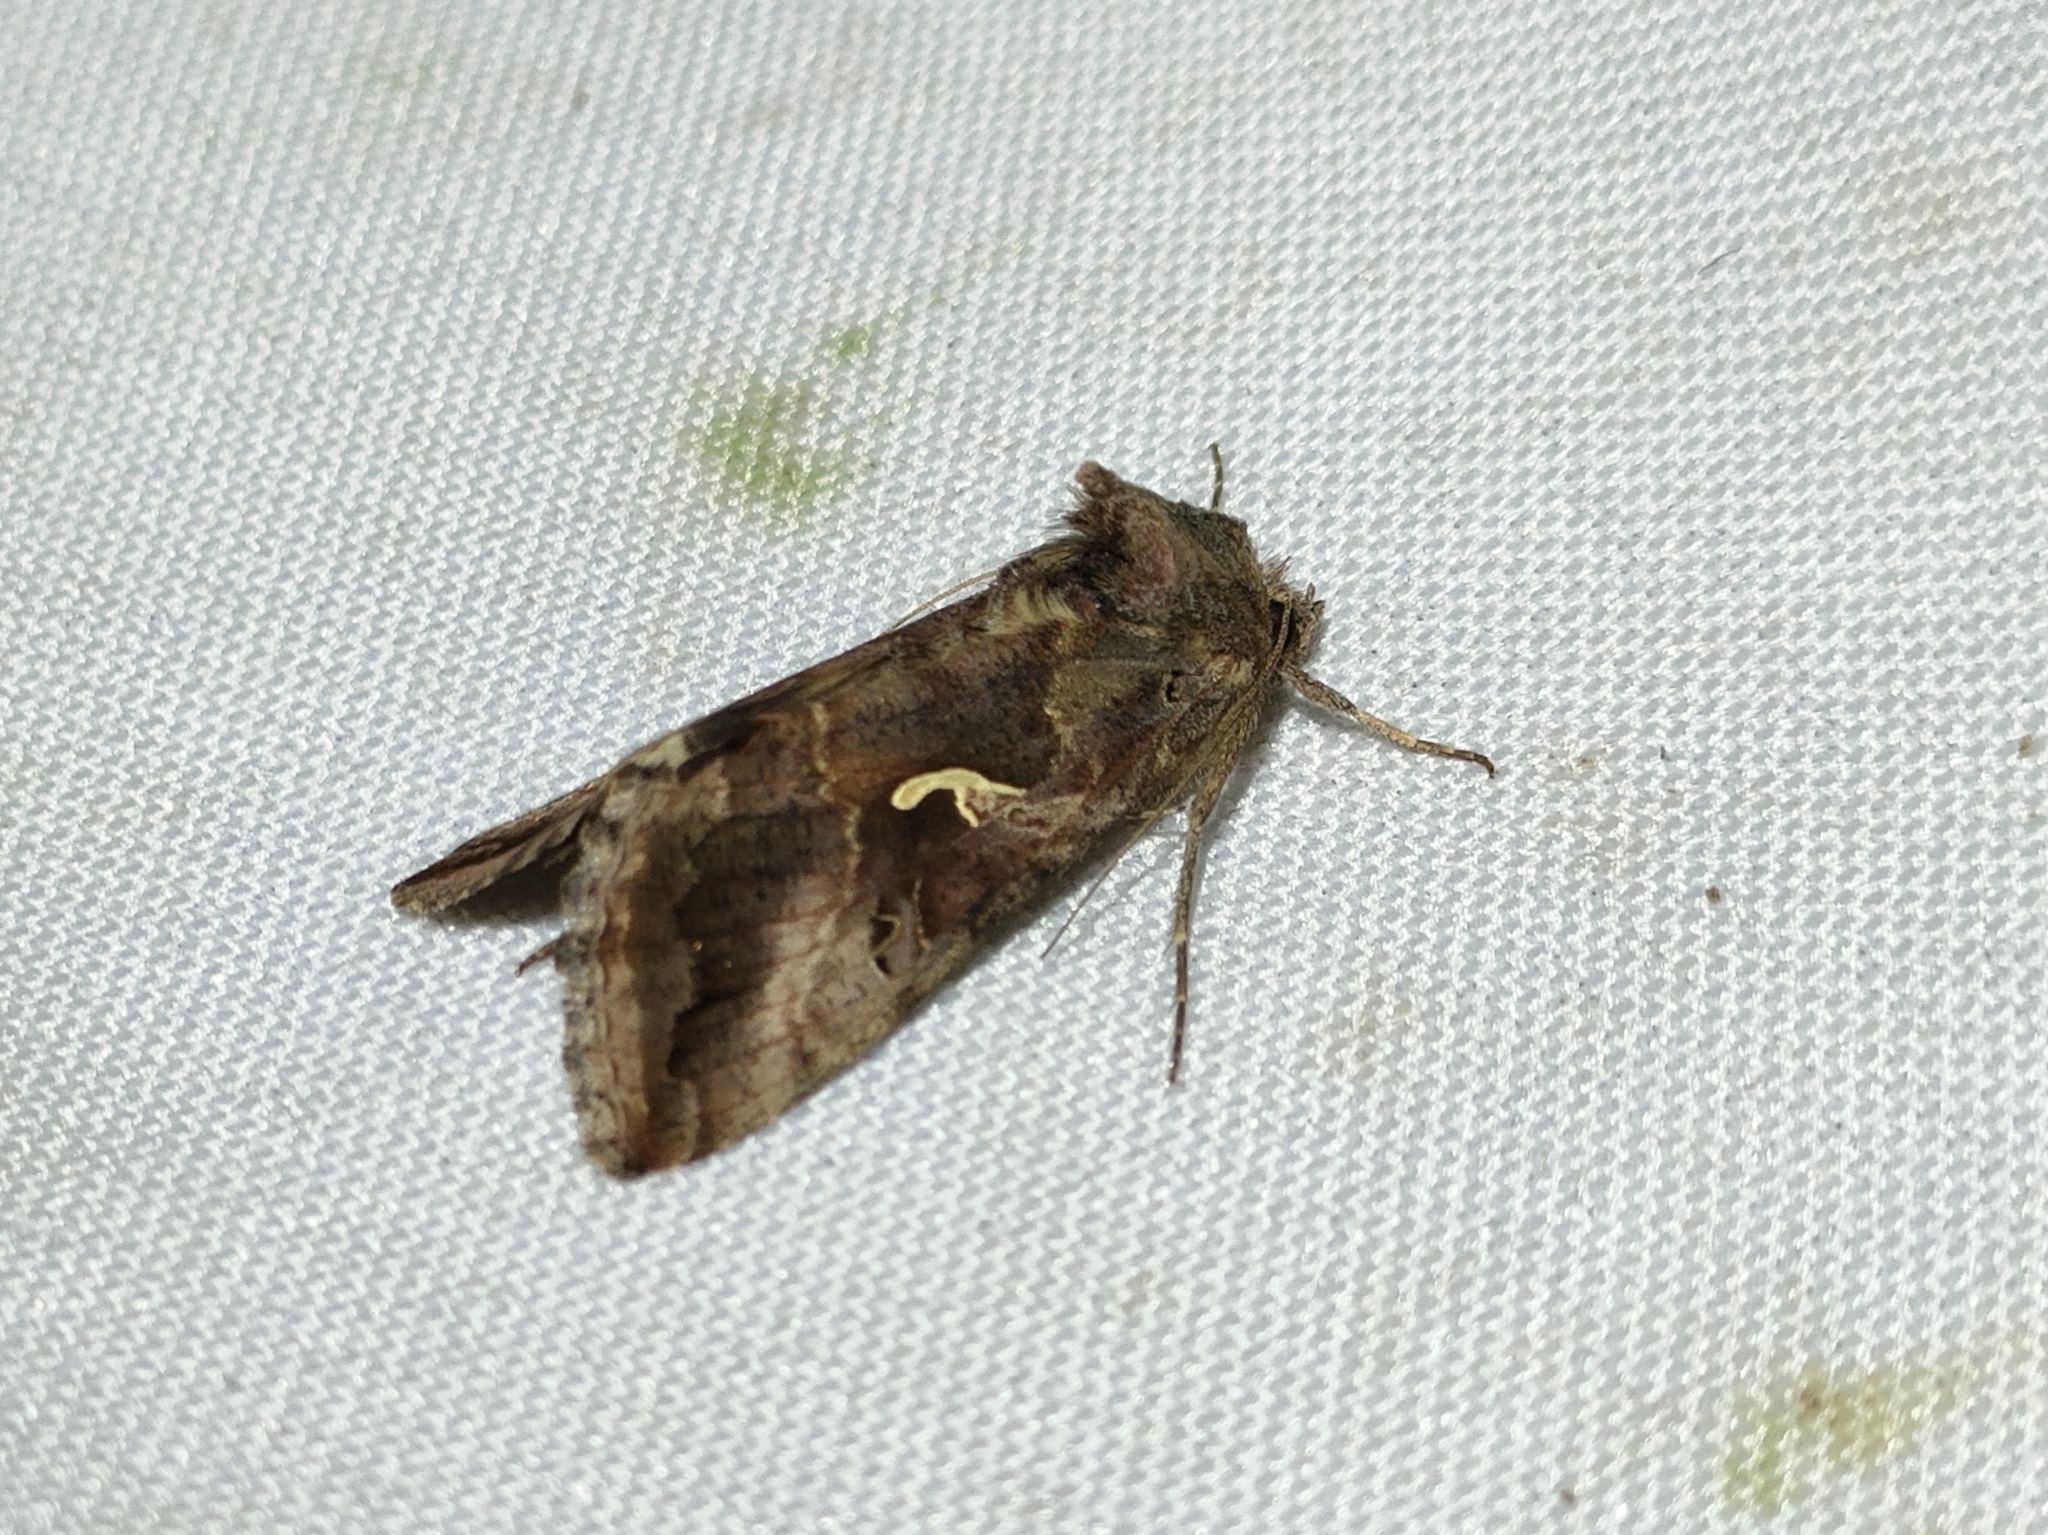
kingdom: Animalia
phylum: Arthropoda
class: Insecta
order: Lepidoptera
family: Noctuidae
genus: Autographa
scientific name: Autographa gamma
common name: Silver y
